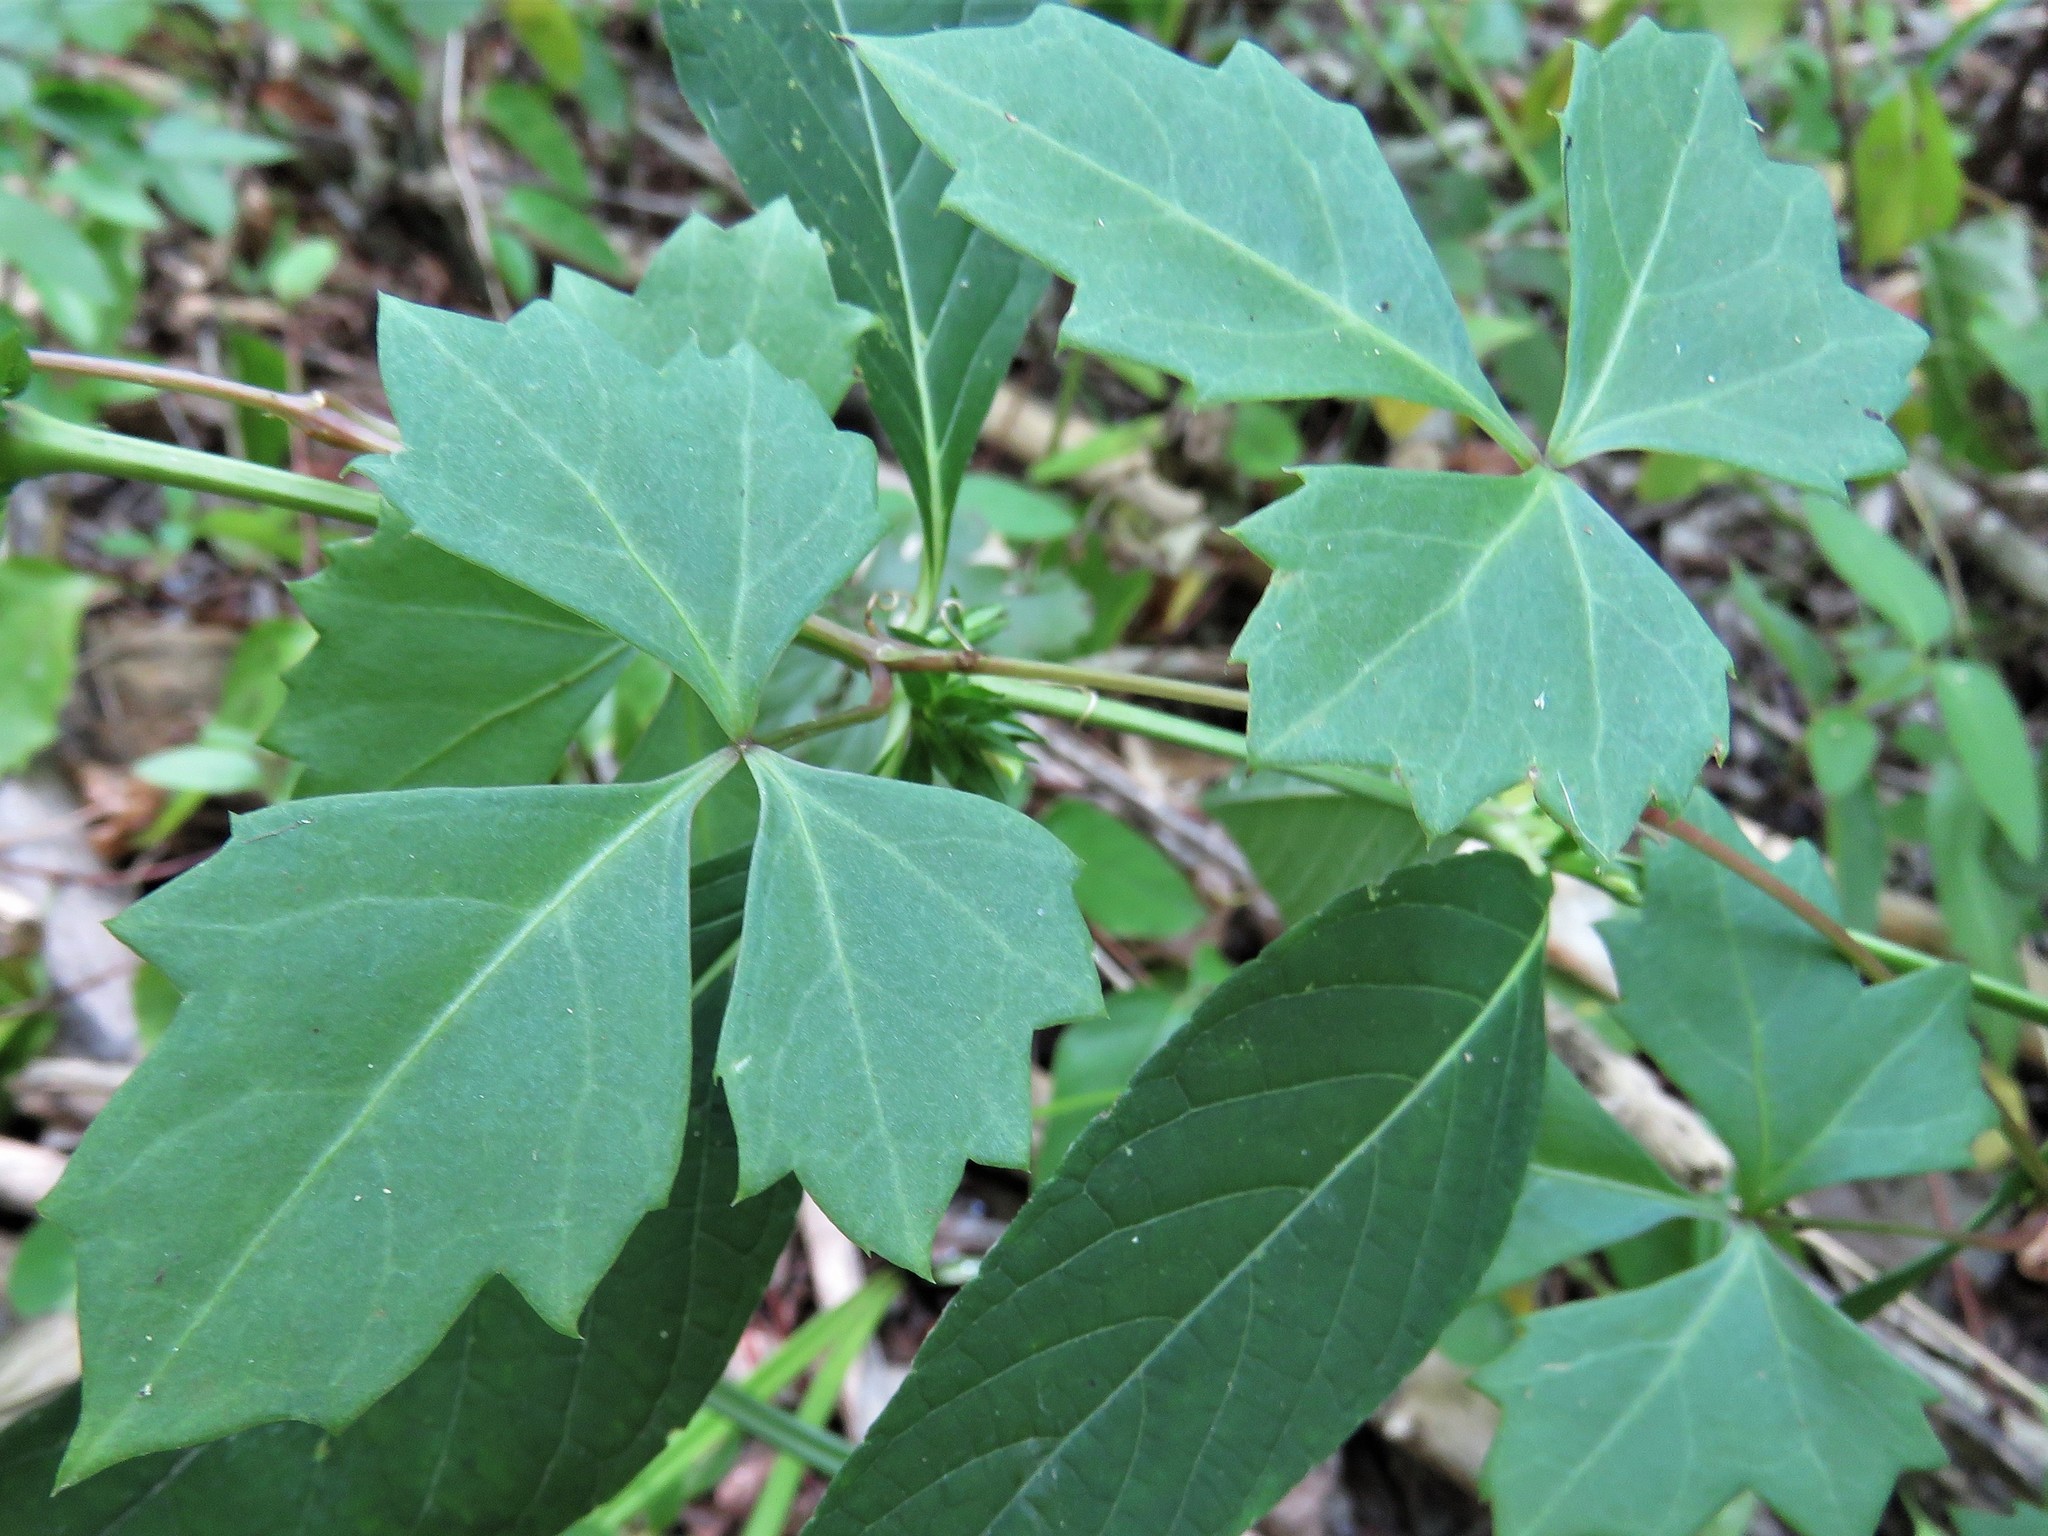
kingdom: Plantae
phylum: Tracheophyta
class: Magnoliopsida
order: Vitales
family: Vitaceae
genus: Cissus
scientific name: Cissus trifoliata
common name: Vine-sorrel
